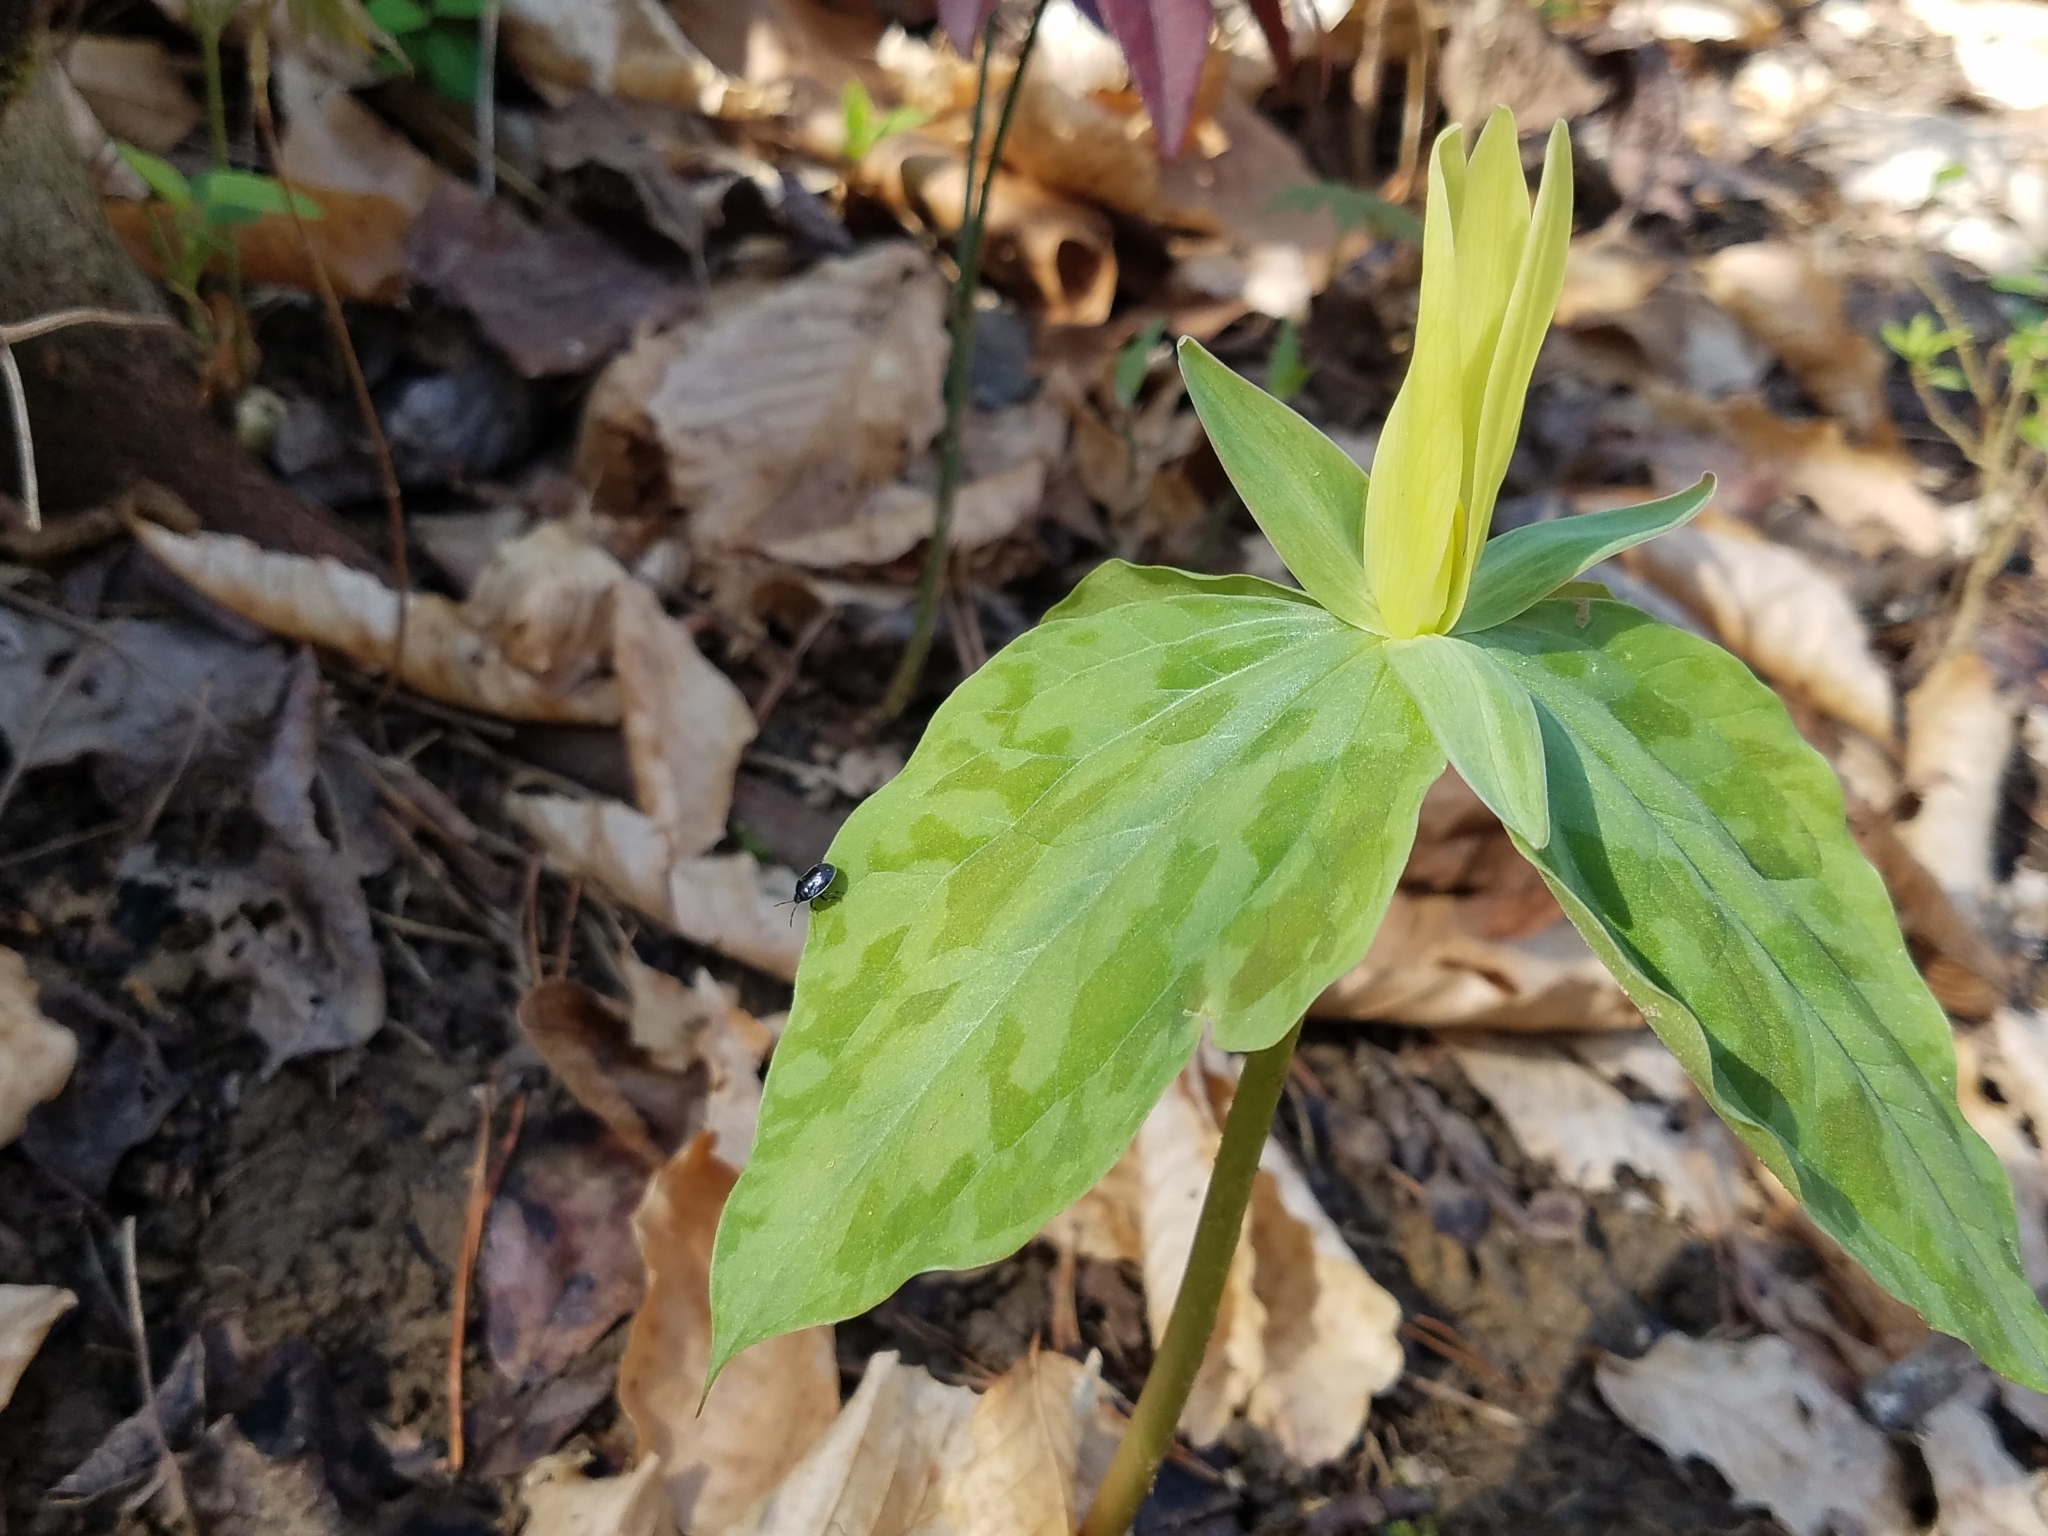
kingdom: Plantae
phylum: Tracheophyta
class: Liliopsida
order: Liliales
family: Melanthiaceae
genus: Trillium
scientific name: Trillium luteum
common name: Wax trillium
